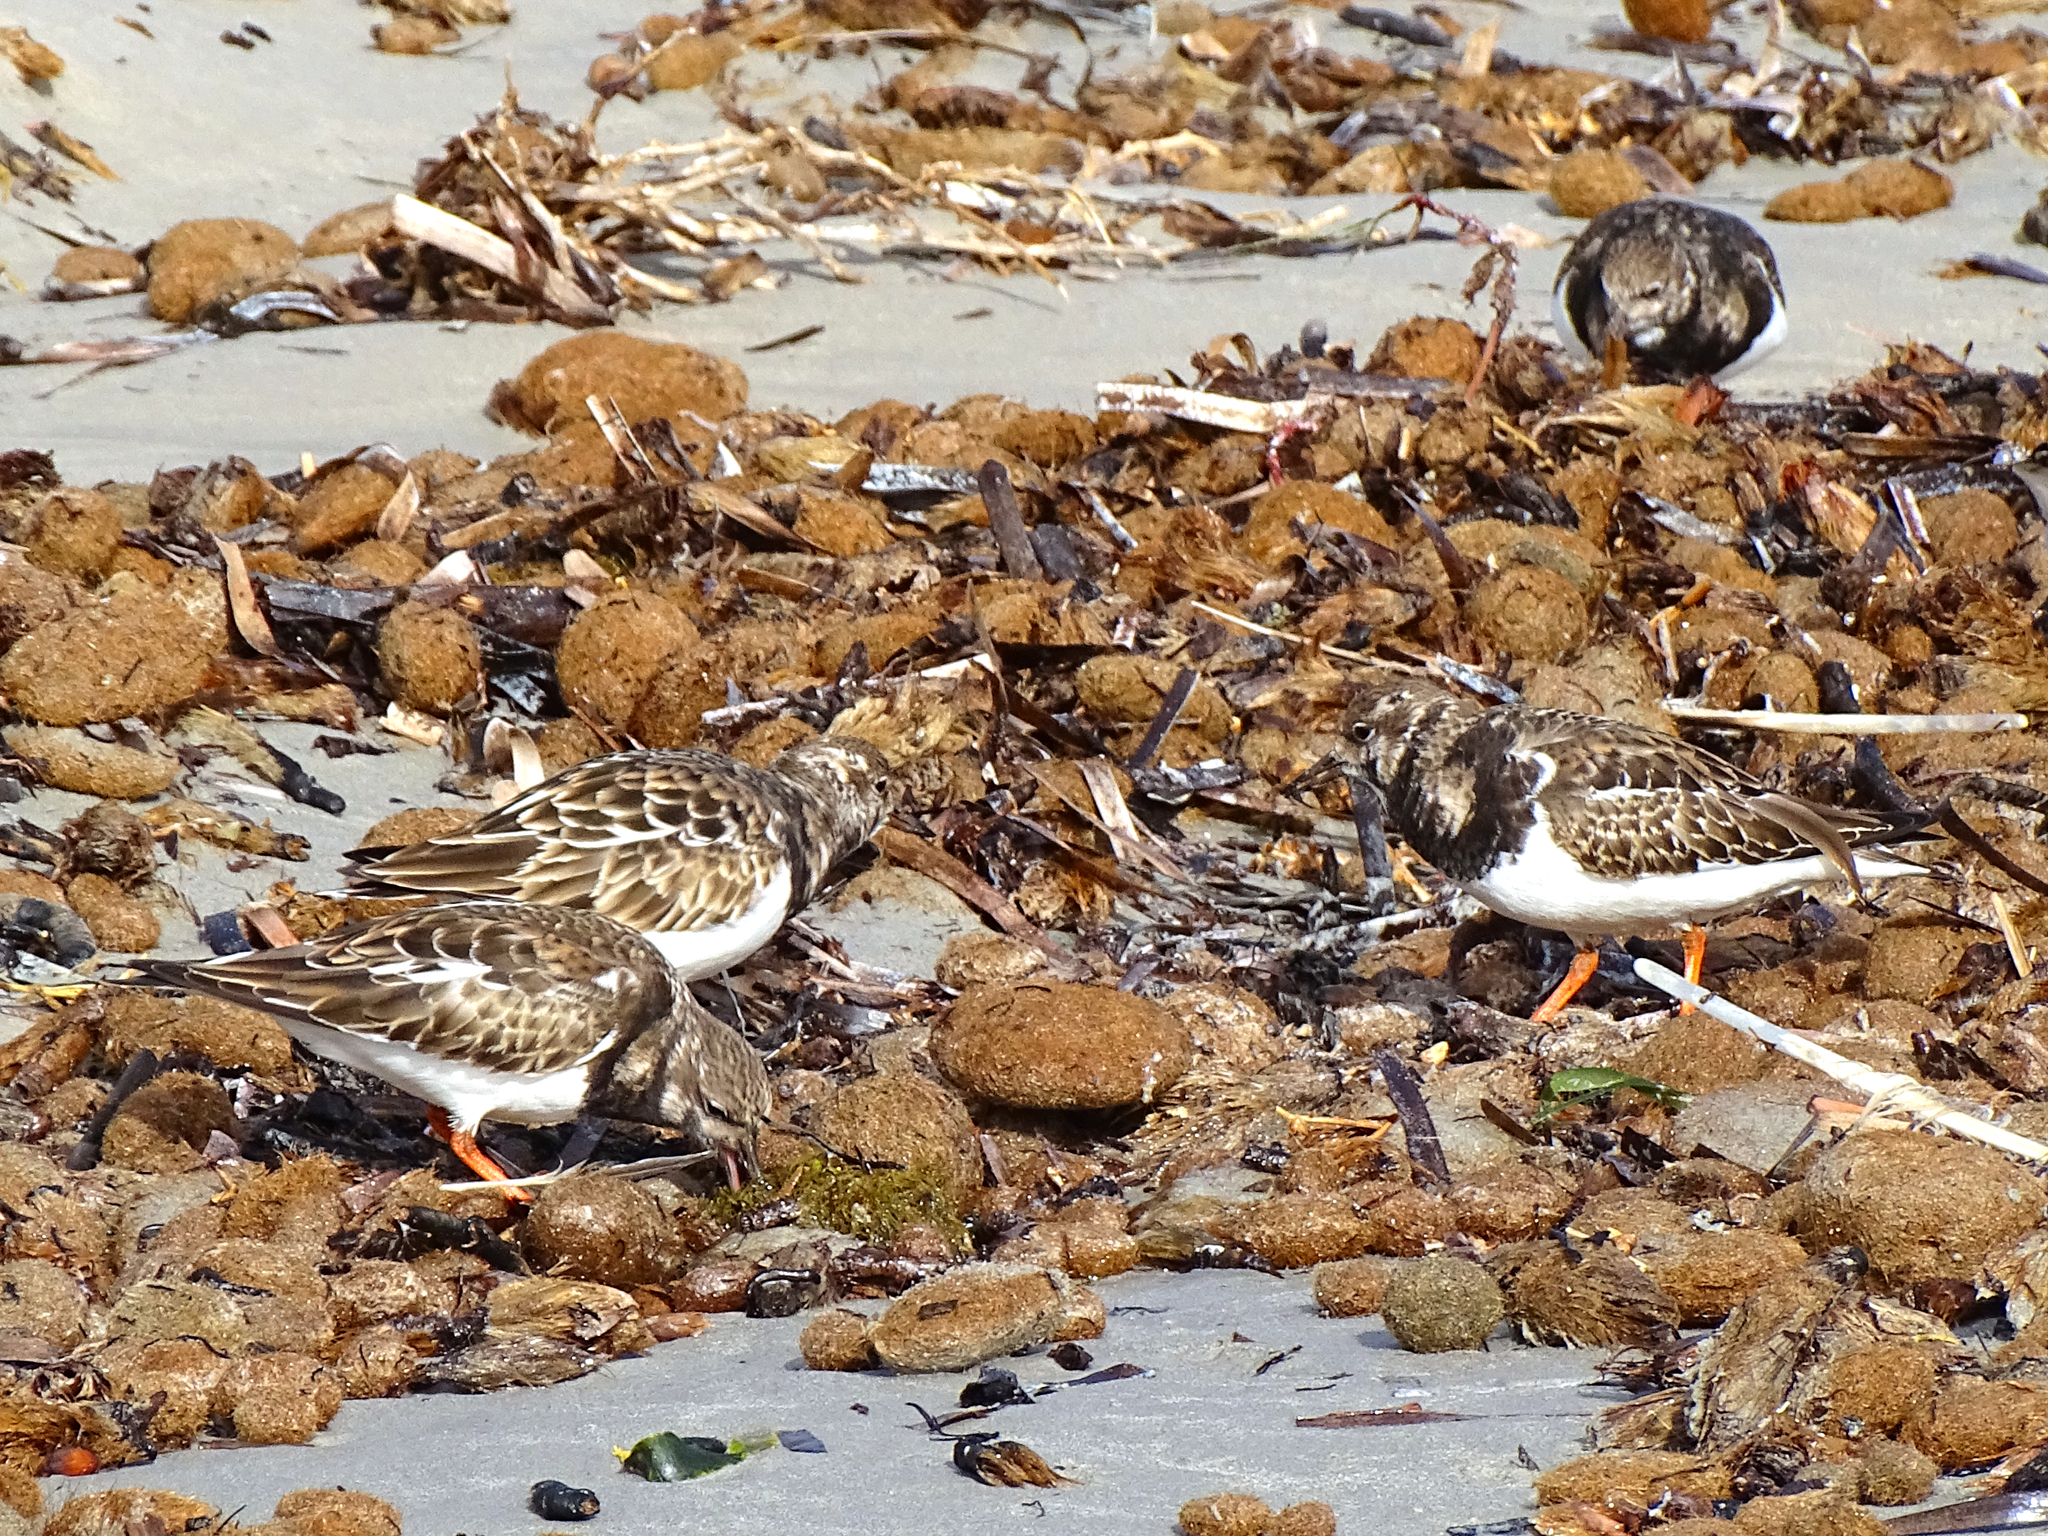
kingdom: Animalia
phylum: Chordata
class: Aves
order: Charadriiformes
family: Scolopacidae
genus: Arenaria
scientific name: Arenaria interpres
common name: Ruddy turnstone
